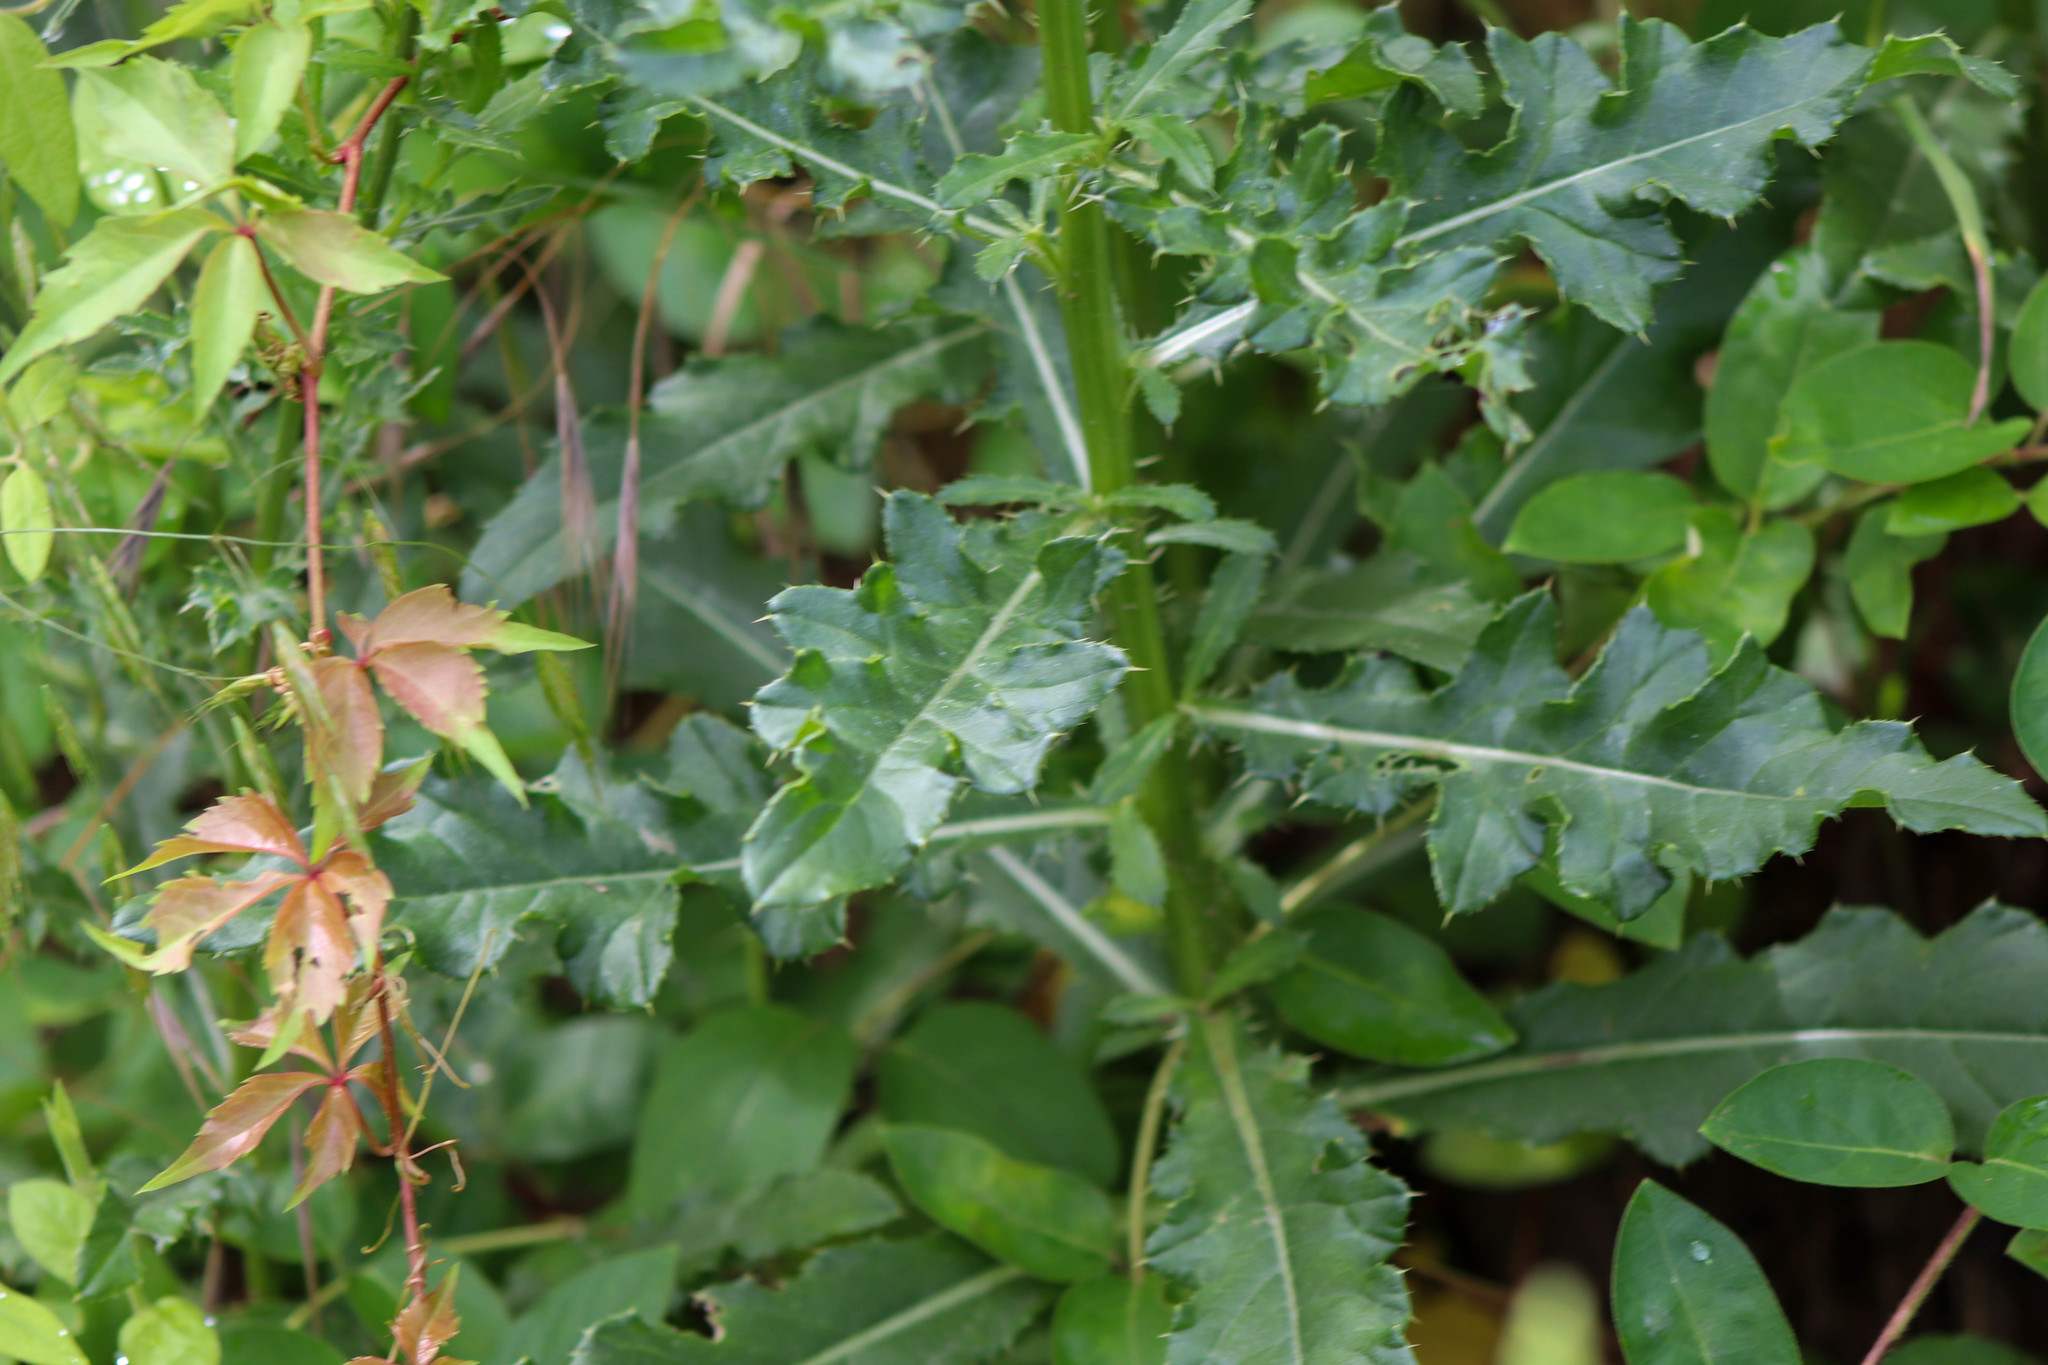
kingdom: Plantae
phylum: Tracheophyta
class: Magnoliopsida
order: Asterales
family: Asteraceae
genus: Cirsium
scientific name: Cirsium arvense
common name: Creeping thistle
